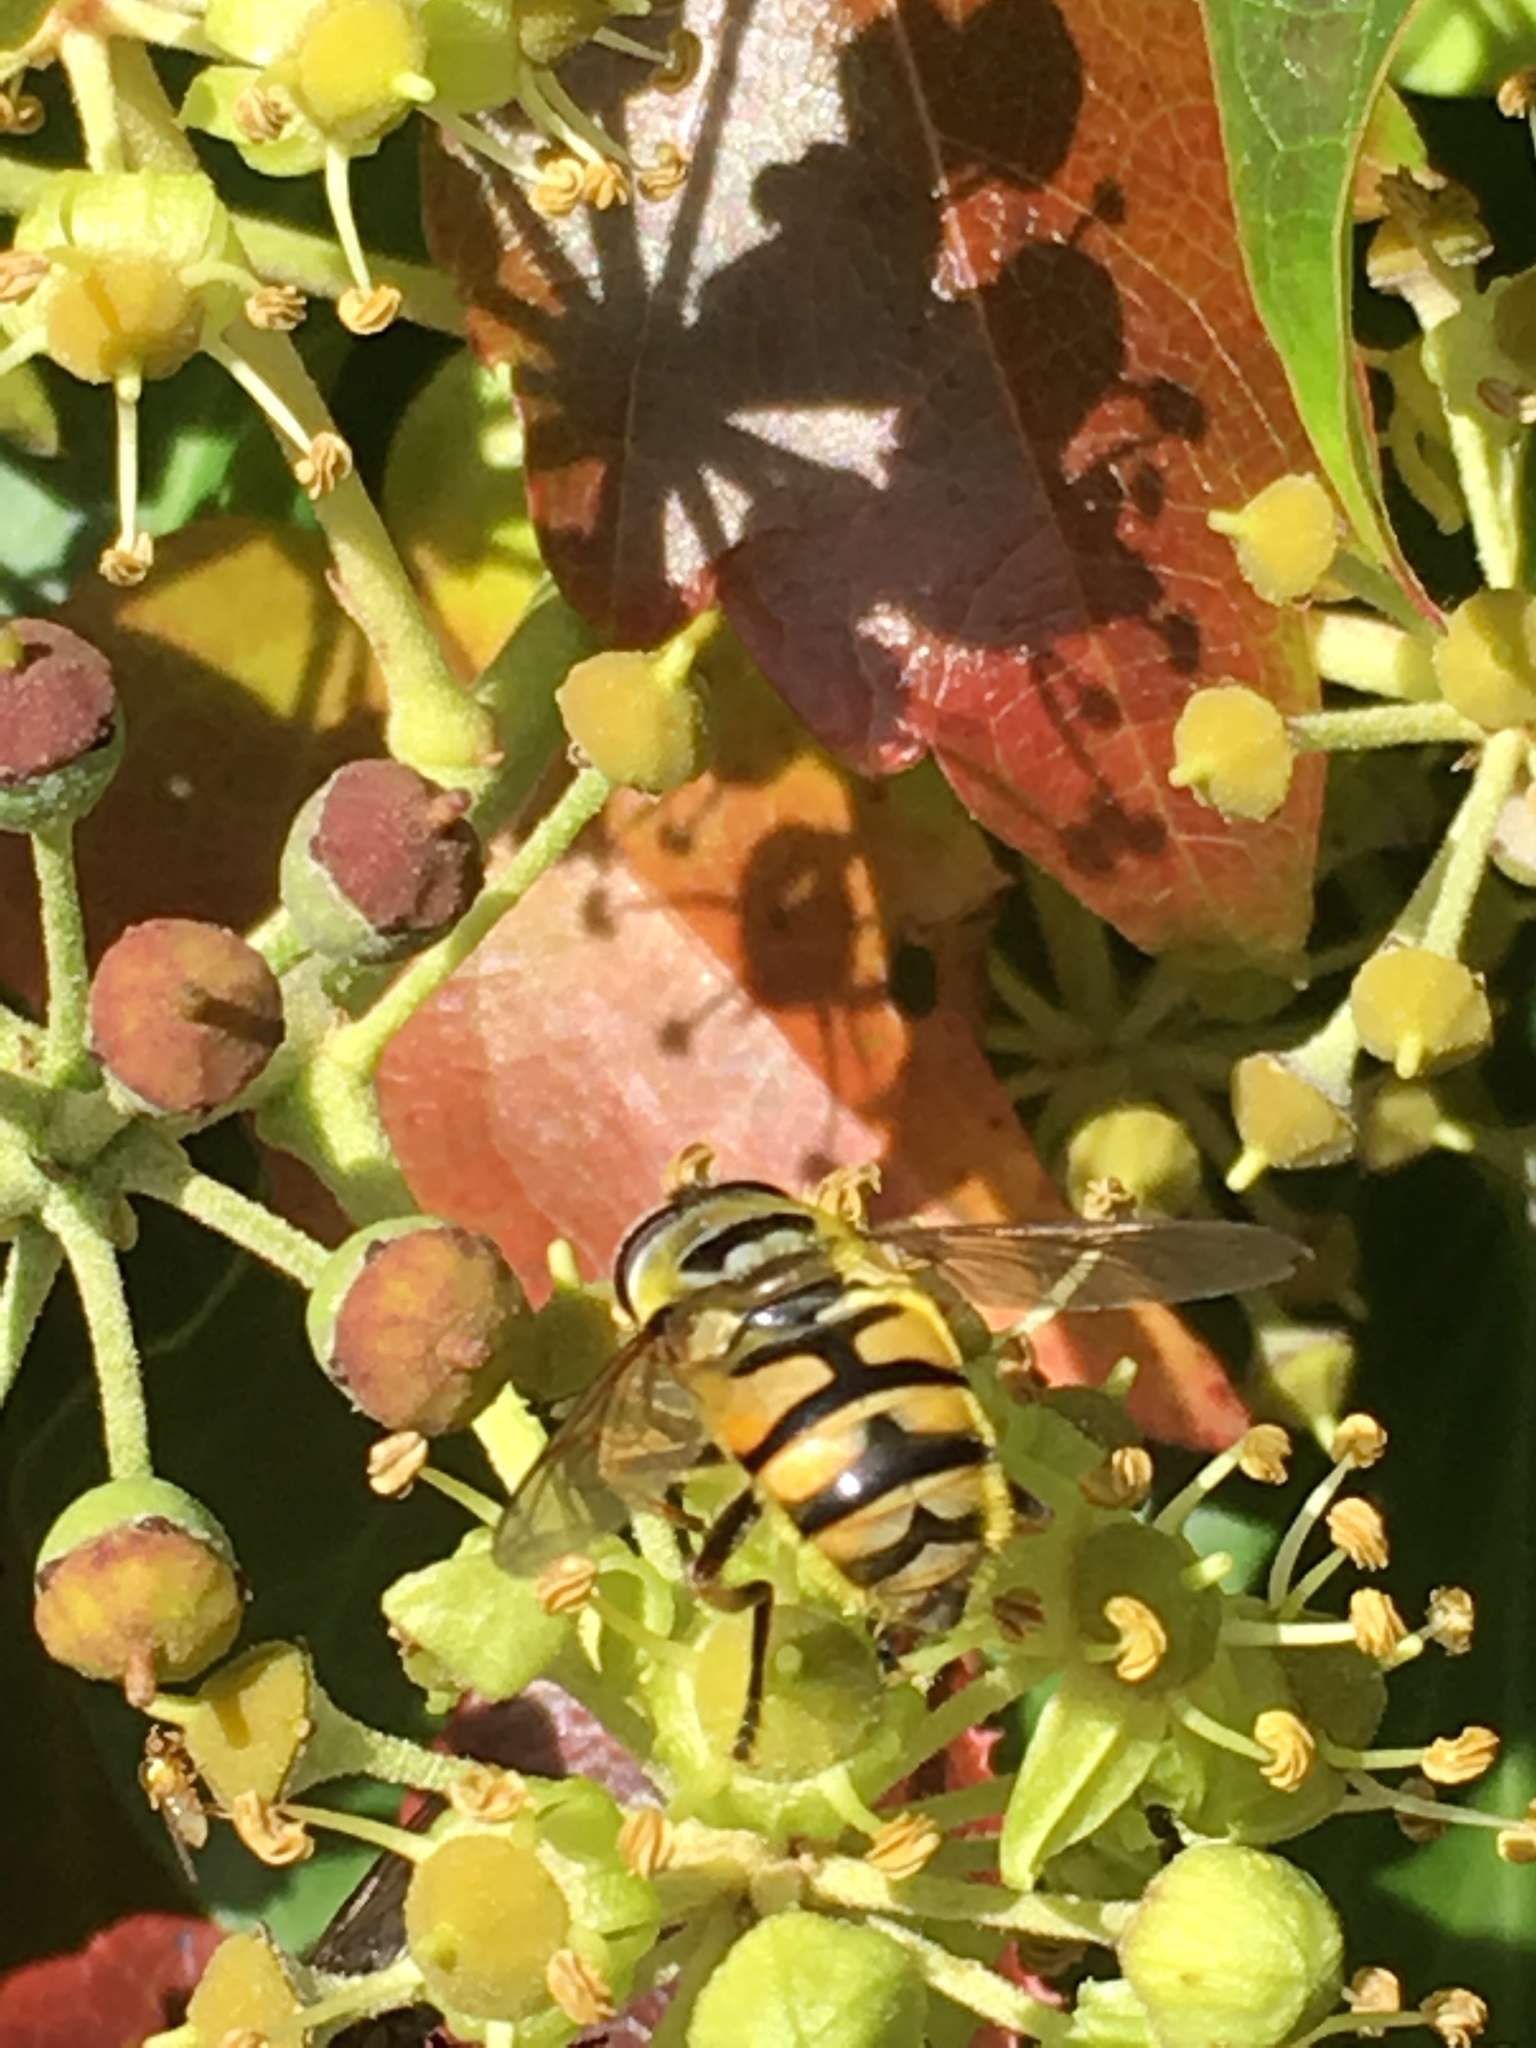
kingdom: Animalia
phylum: Arthropoda
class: Insecta
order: Diptera
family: Syrphidae
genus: Myathropa
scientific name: Myathropa florea
